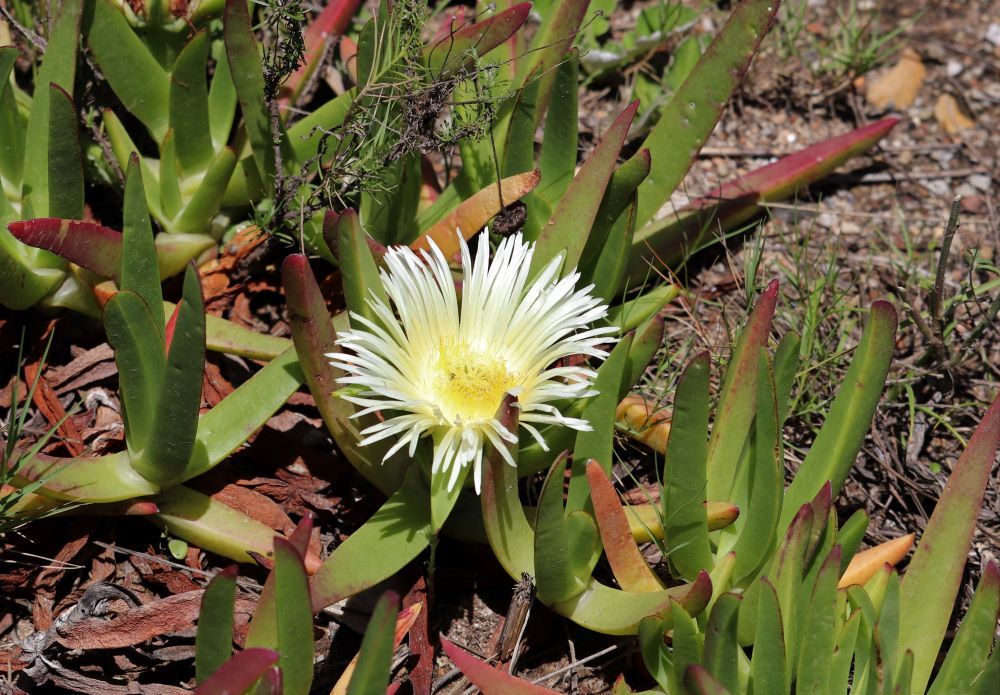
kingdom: Plantae
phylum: Tracheophyta
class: Magnoliopsida
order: Caryophyllales
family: Aizoaceae
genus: Carpobrotus
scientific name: Carpobrotus edulis
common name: Hottentot-fig
